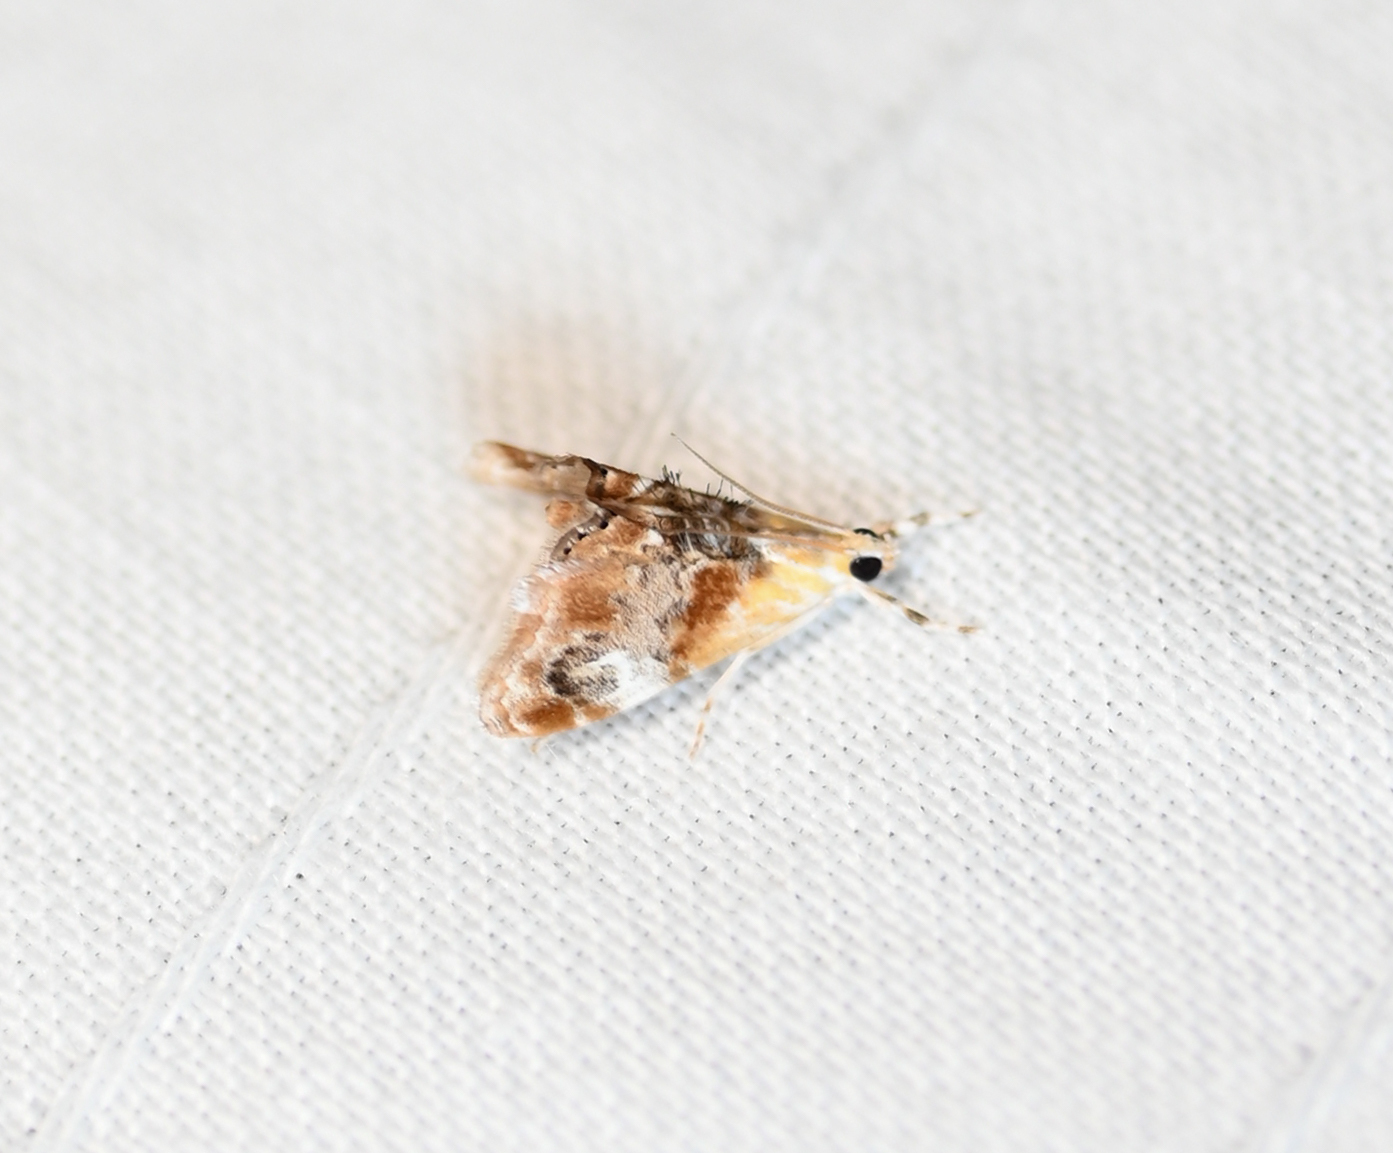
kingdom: Animalia
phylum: Arthropoda
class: Insecta
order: Lepidoptera
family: Crambidae
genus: Dicymolomia
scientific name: Dicymolomia julianalis
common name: Julia's dicymolomia moth
